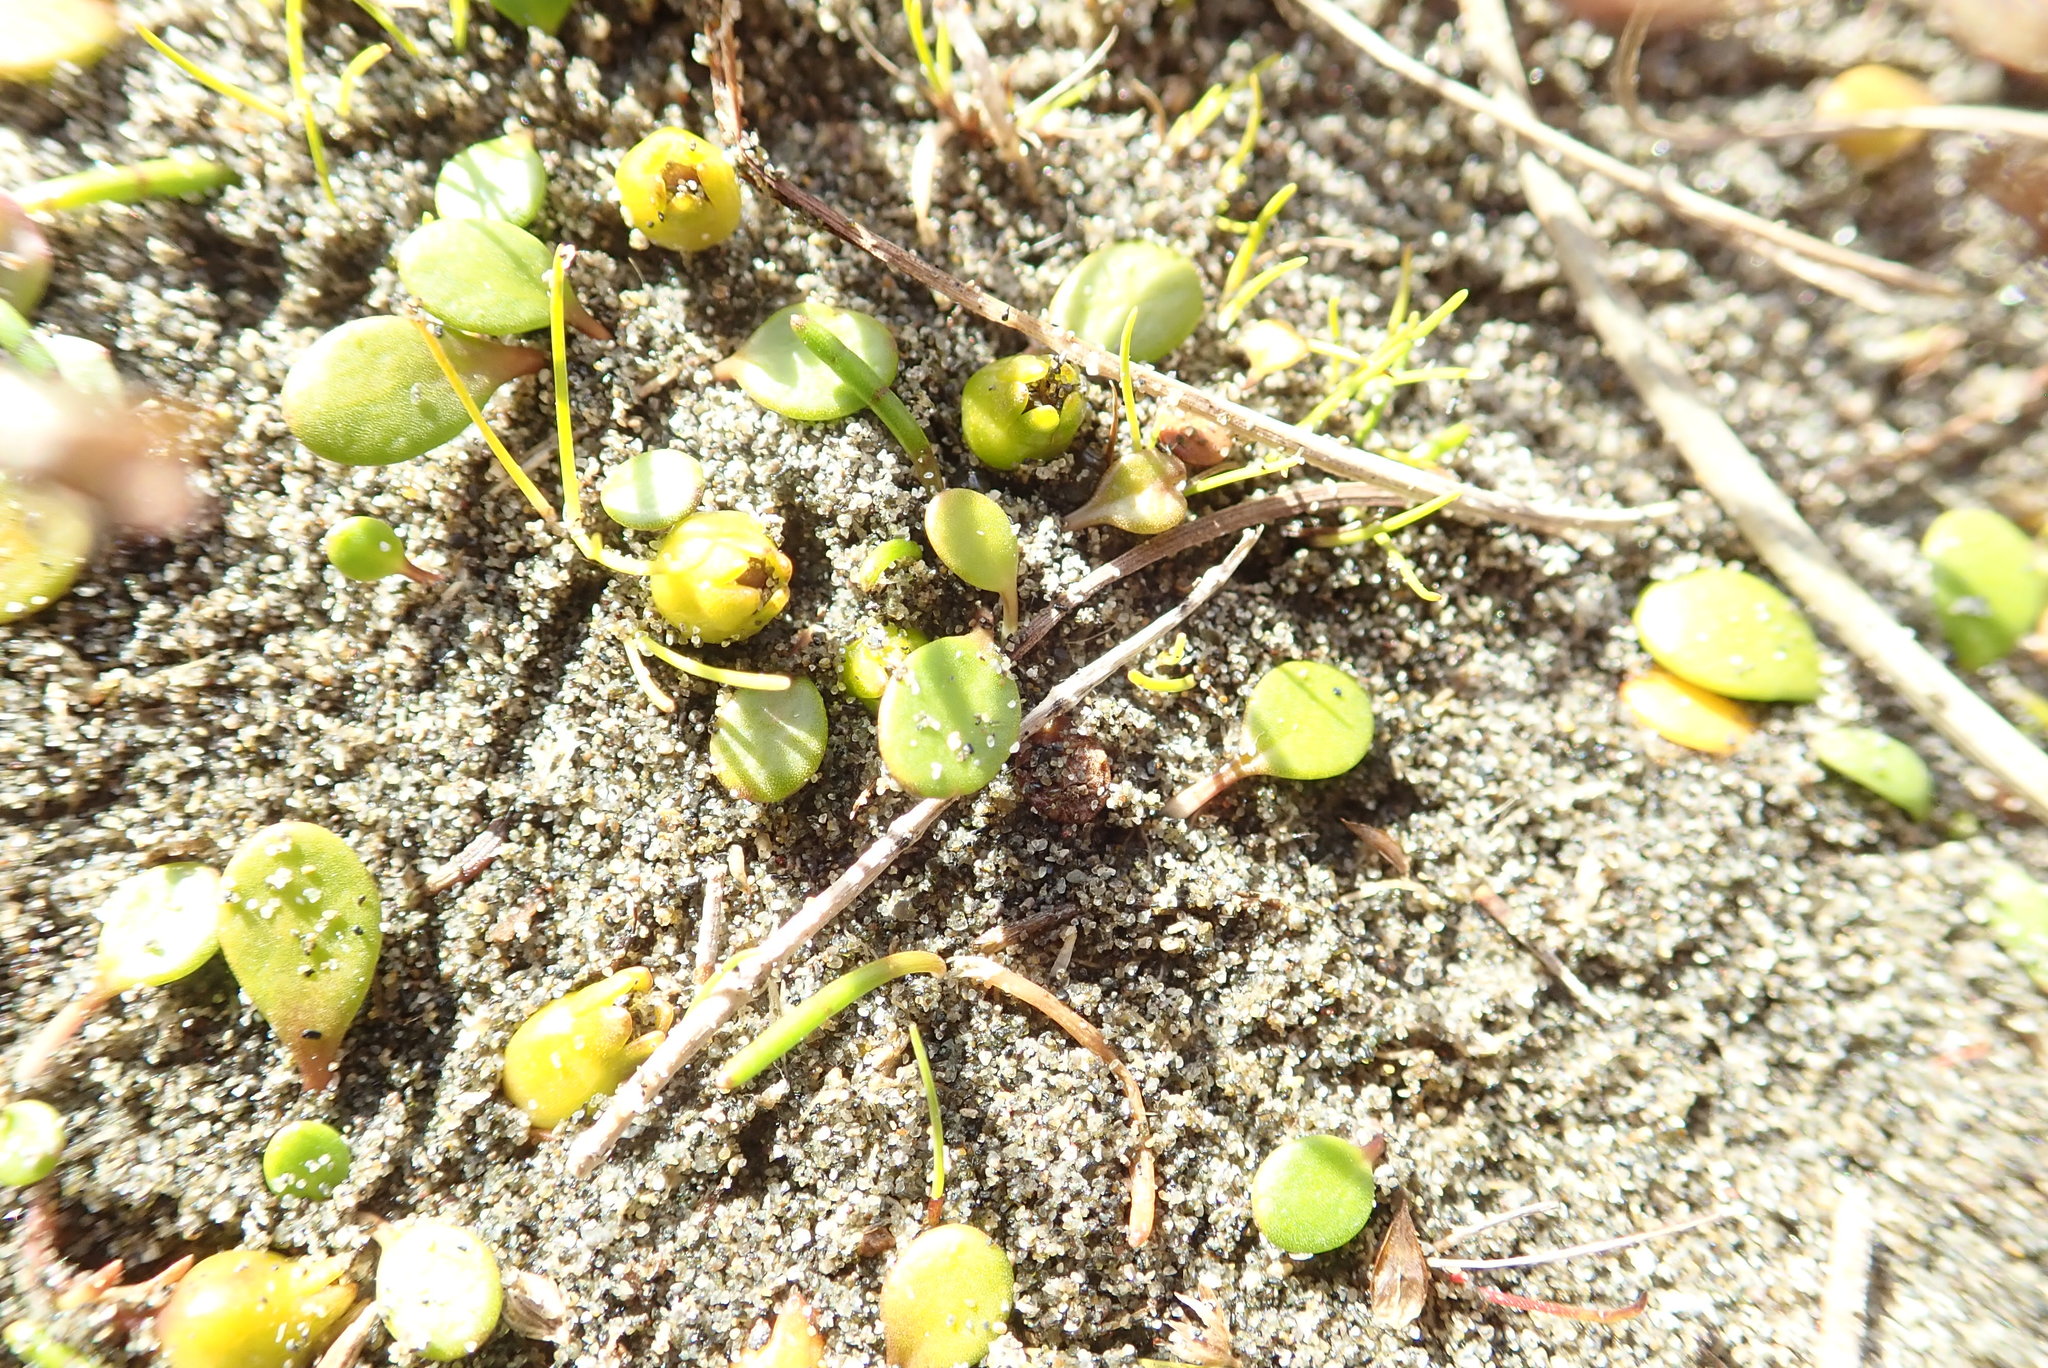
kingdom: Plantae
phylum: Tracheophyta
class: Magnoliopsida
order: Asterales
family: Goodeniaceae
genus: Goodenia
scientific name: Goodenia heenanii
